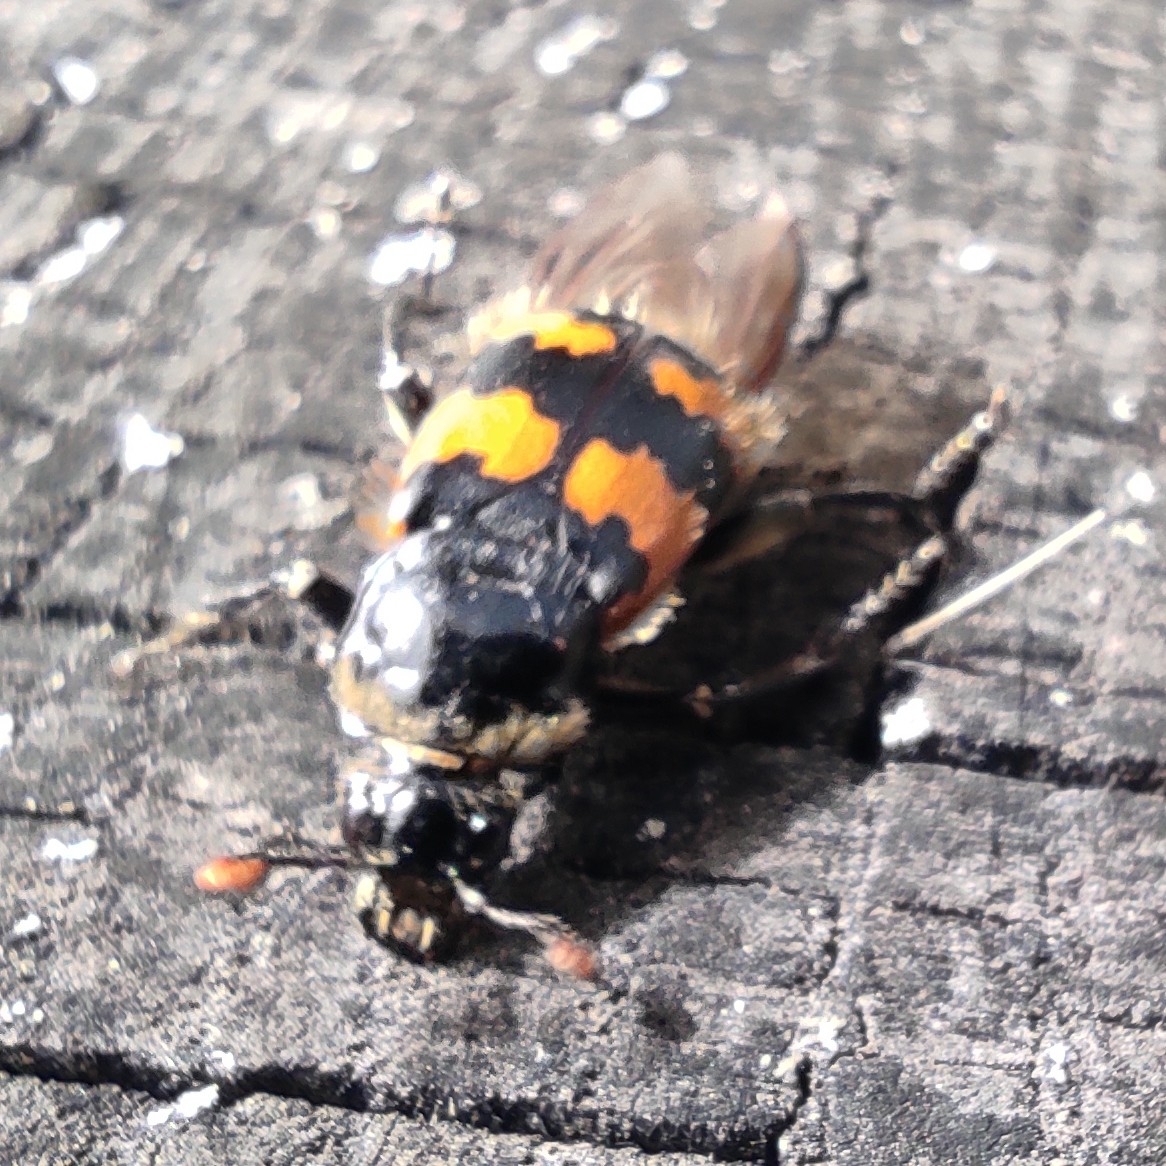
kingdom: Animalia
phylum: Arthropoda
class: Insecta
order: Coleoptera
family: Staphylinidae
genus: Nicrophorus
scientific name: Nicrophorus vespillo
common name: Common burying beetle
